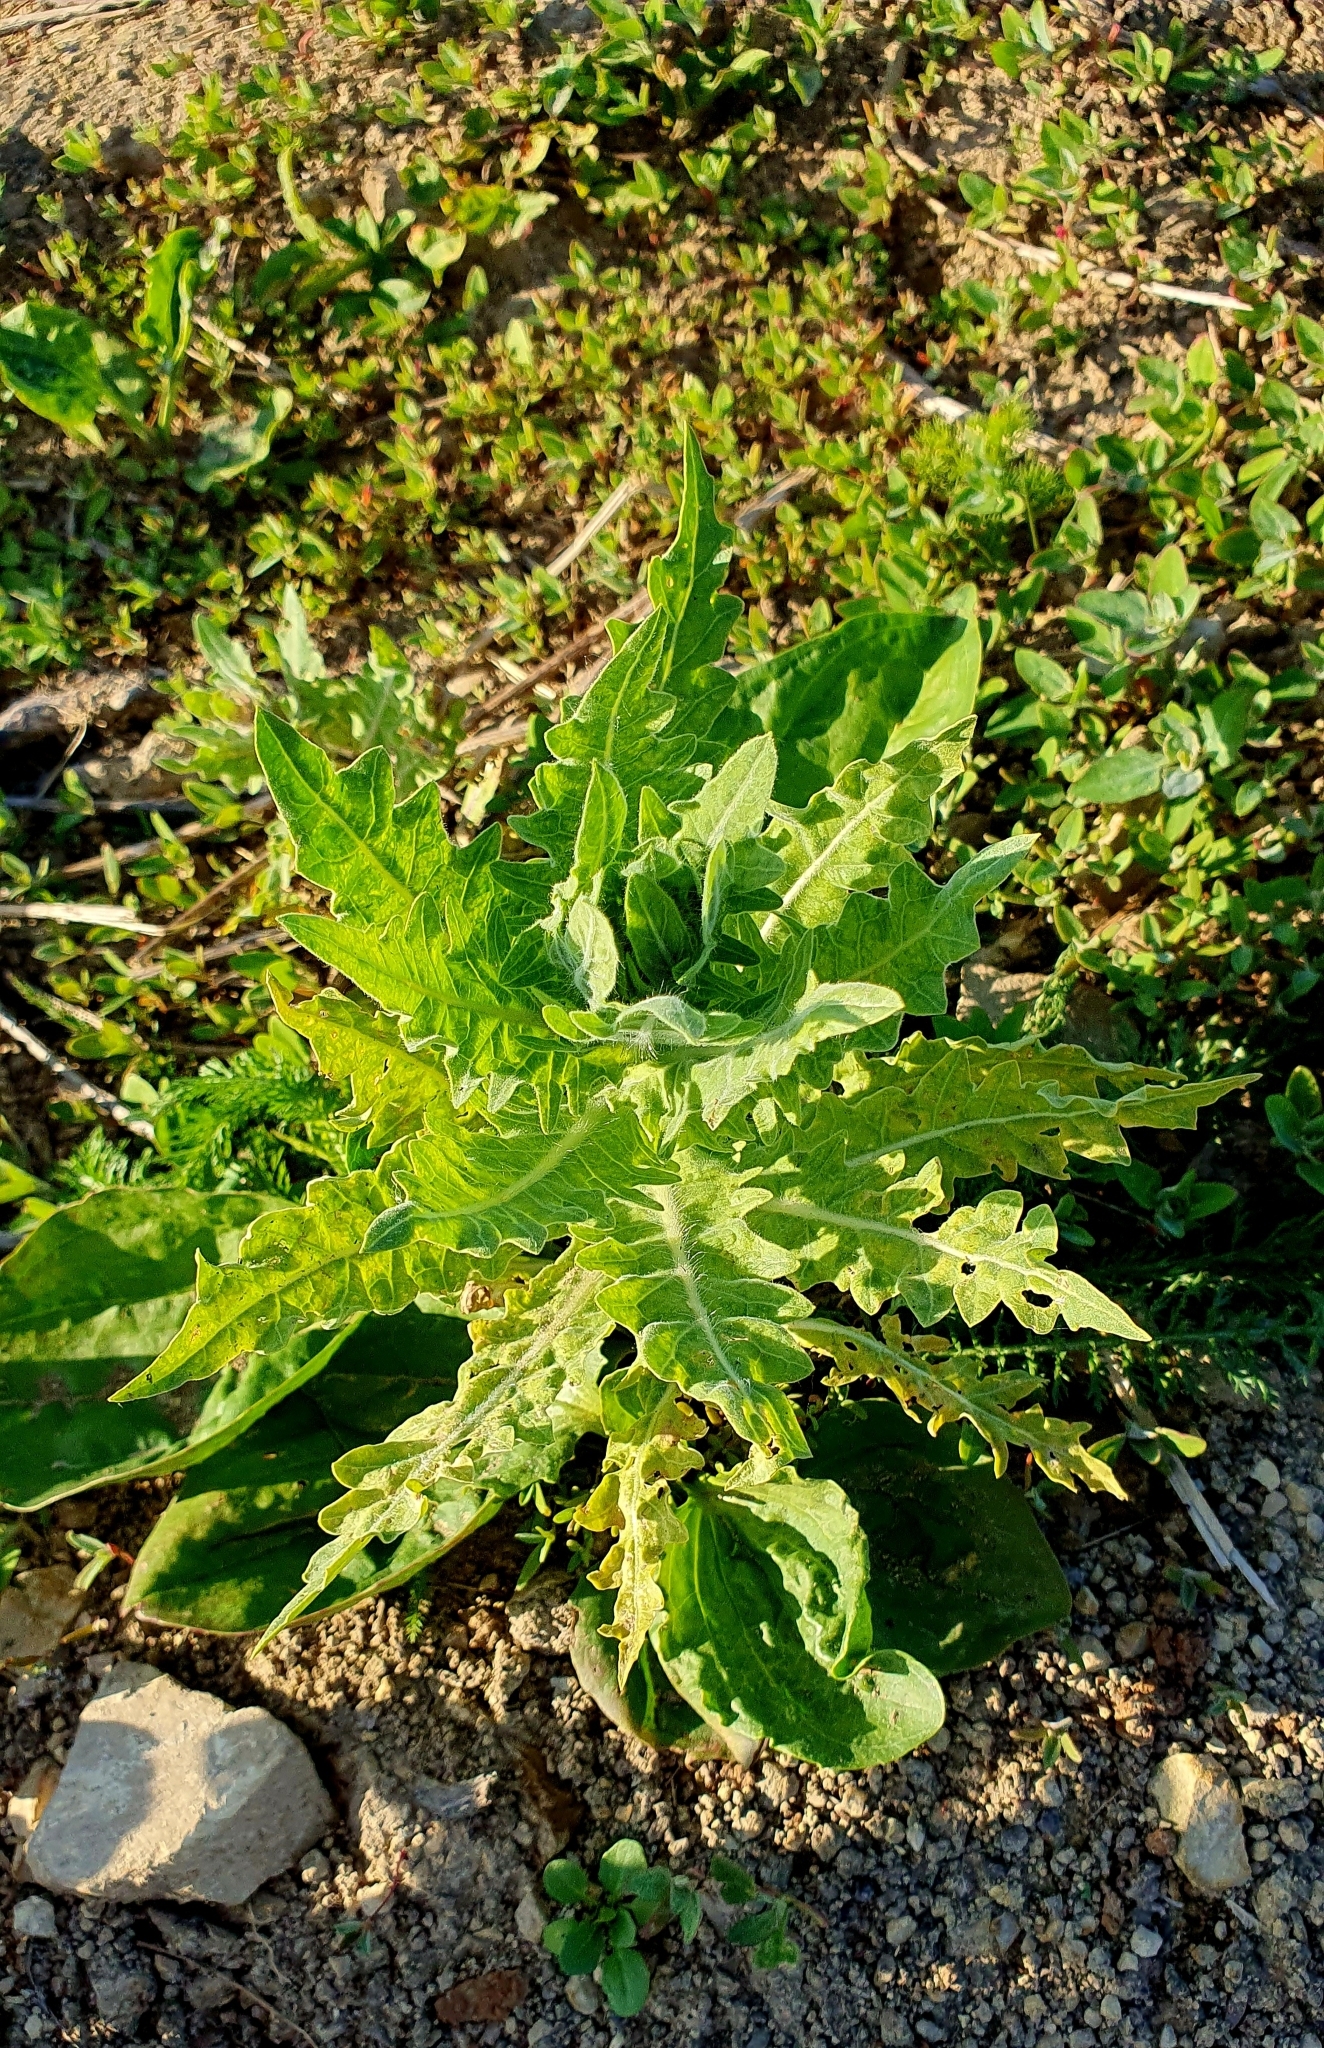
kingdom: Plantae
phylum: Tracheophyta
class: Magnoliopsida
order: Solanales
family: Solanaceae
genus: Hyoscyamus
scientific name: Hyoscyamus niger
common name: Henbane
